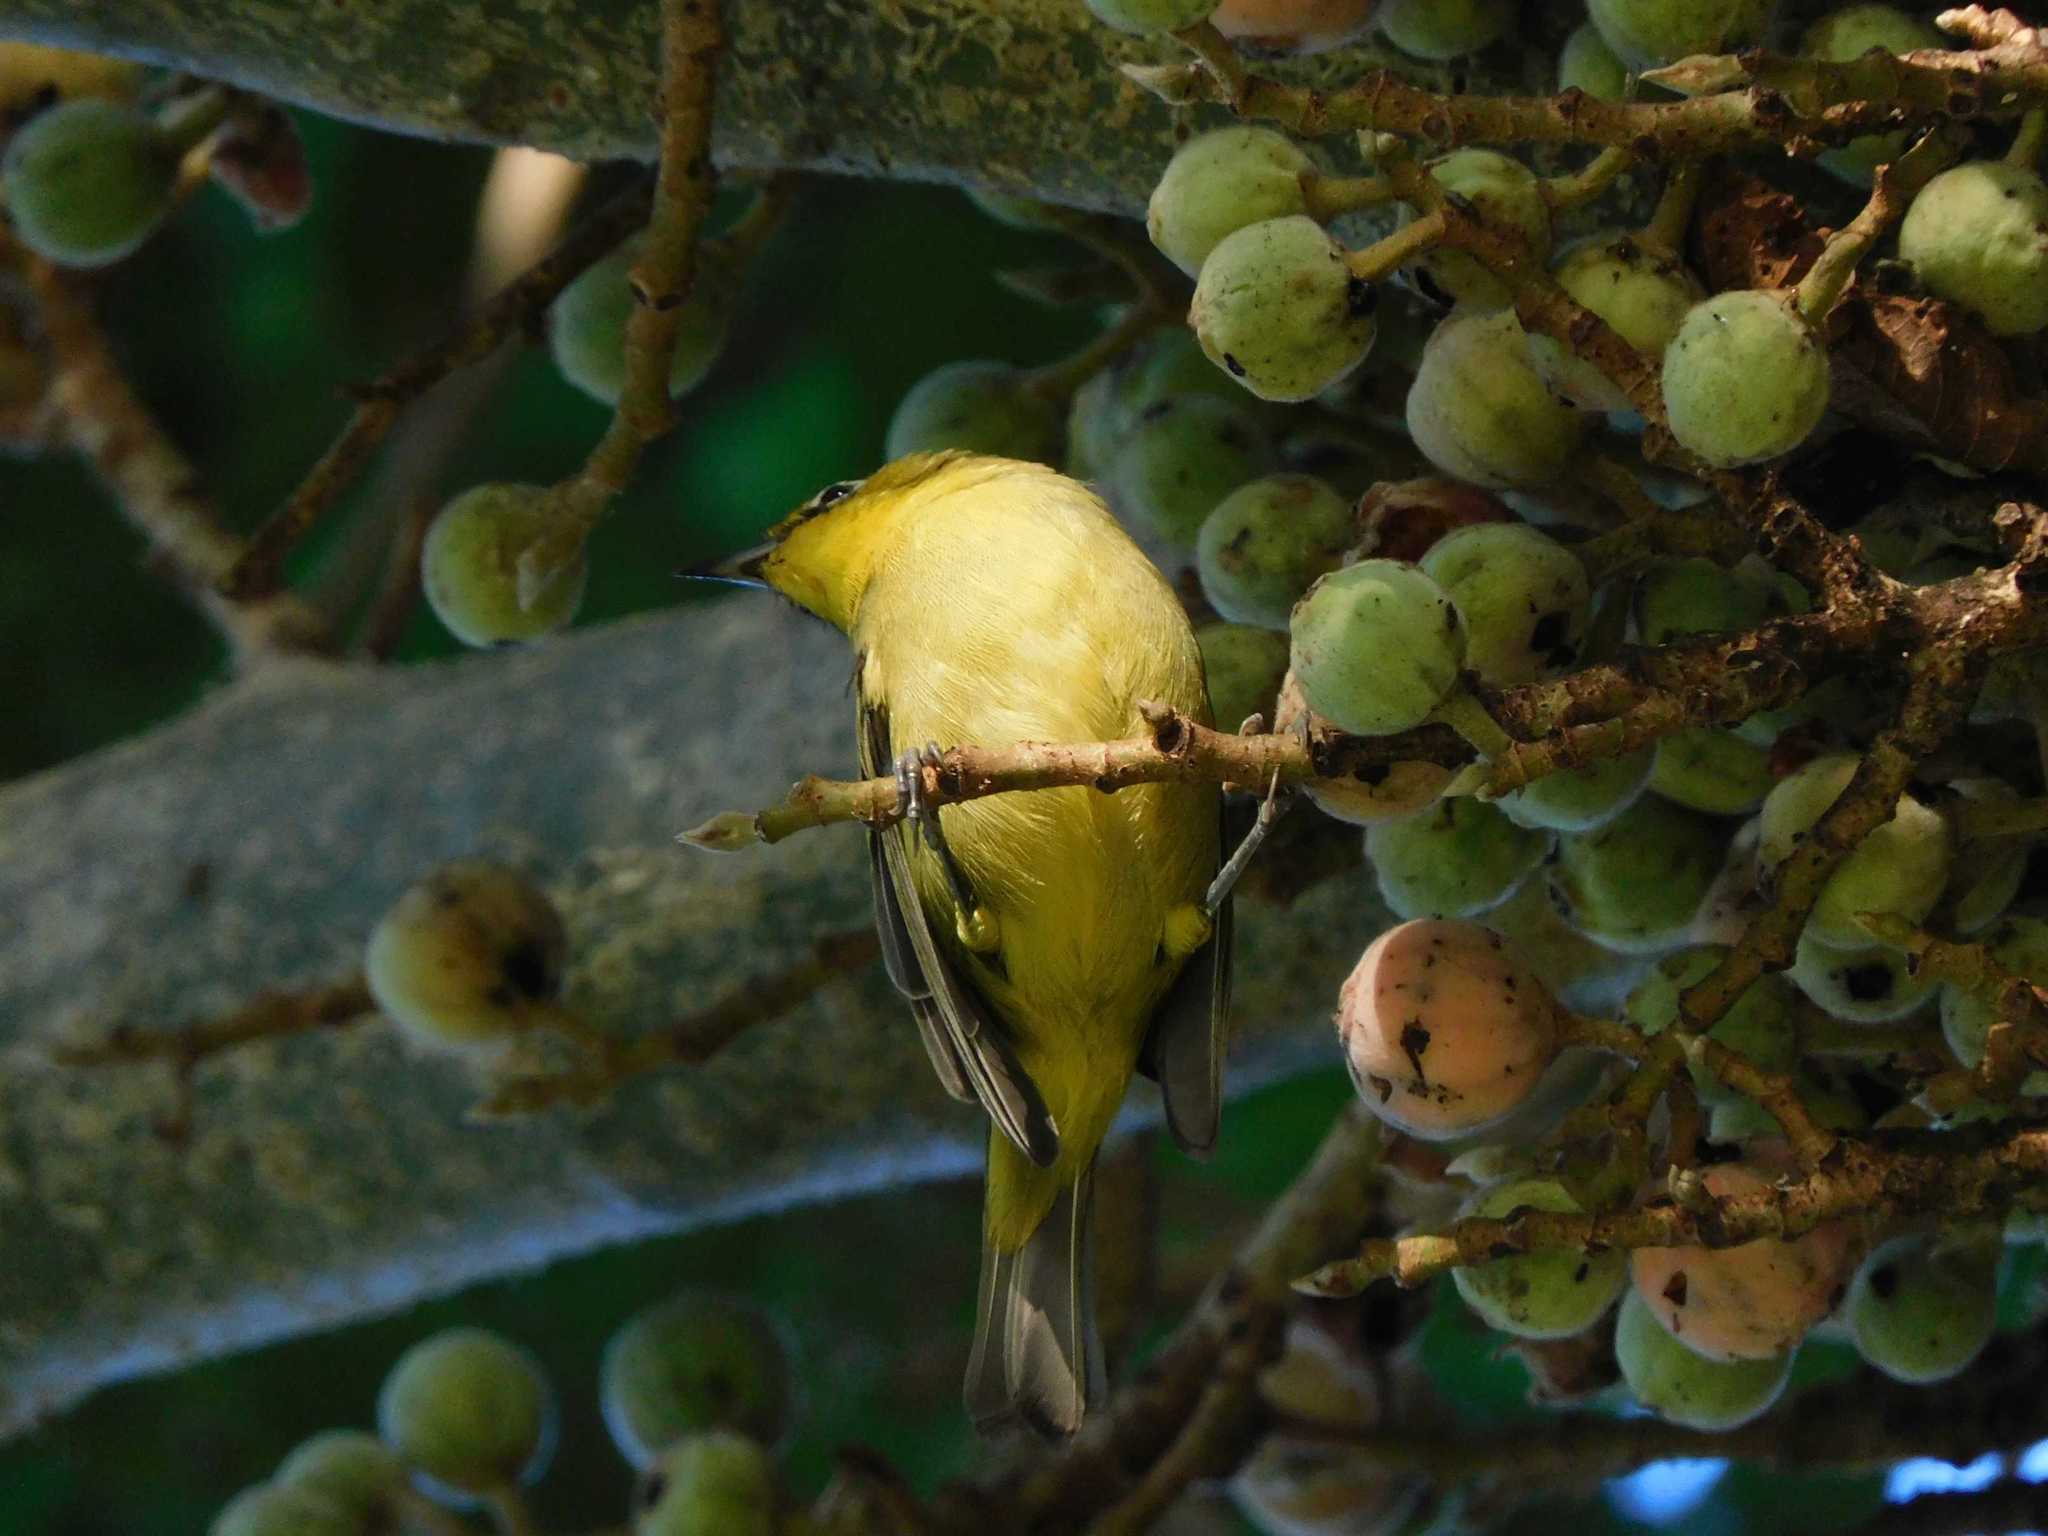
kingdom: Animalia
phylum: Chordata
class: Aves
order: Passeriformes
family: Zosteropidae
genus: Zosterops
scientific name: Zosterops virens
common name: Cape white-eye
